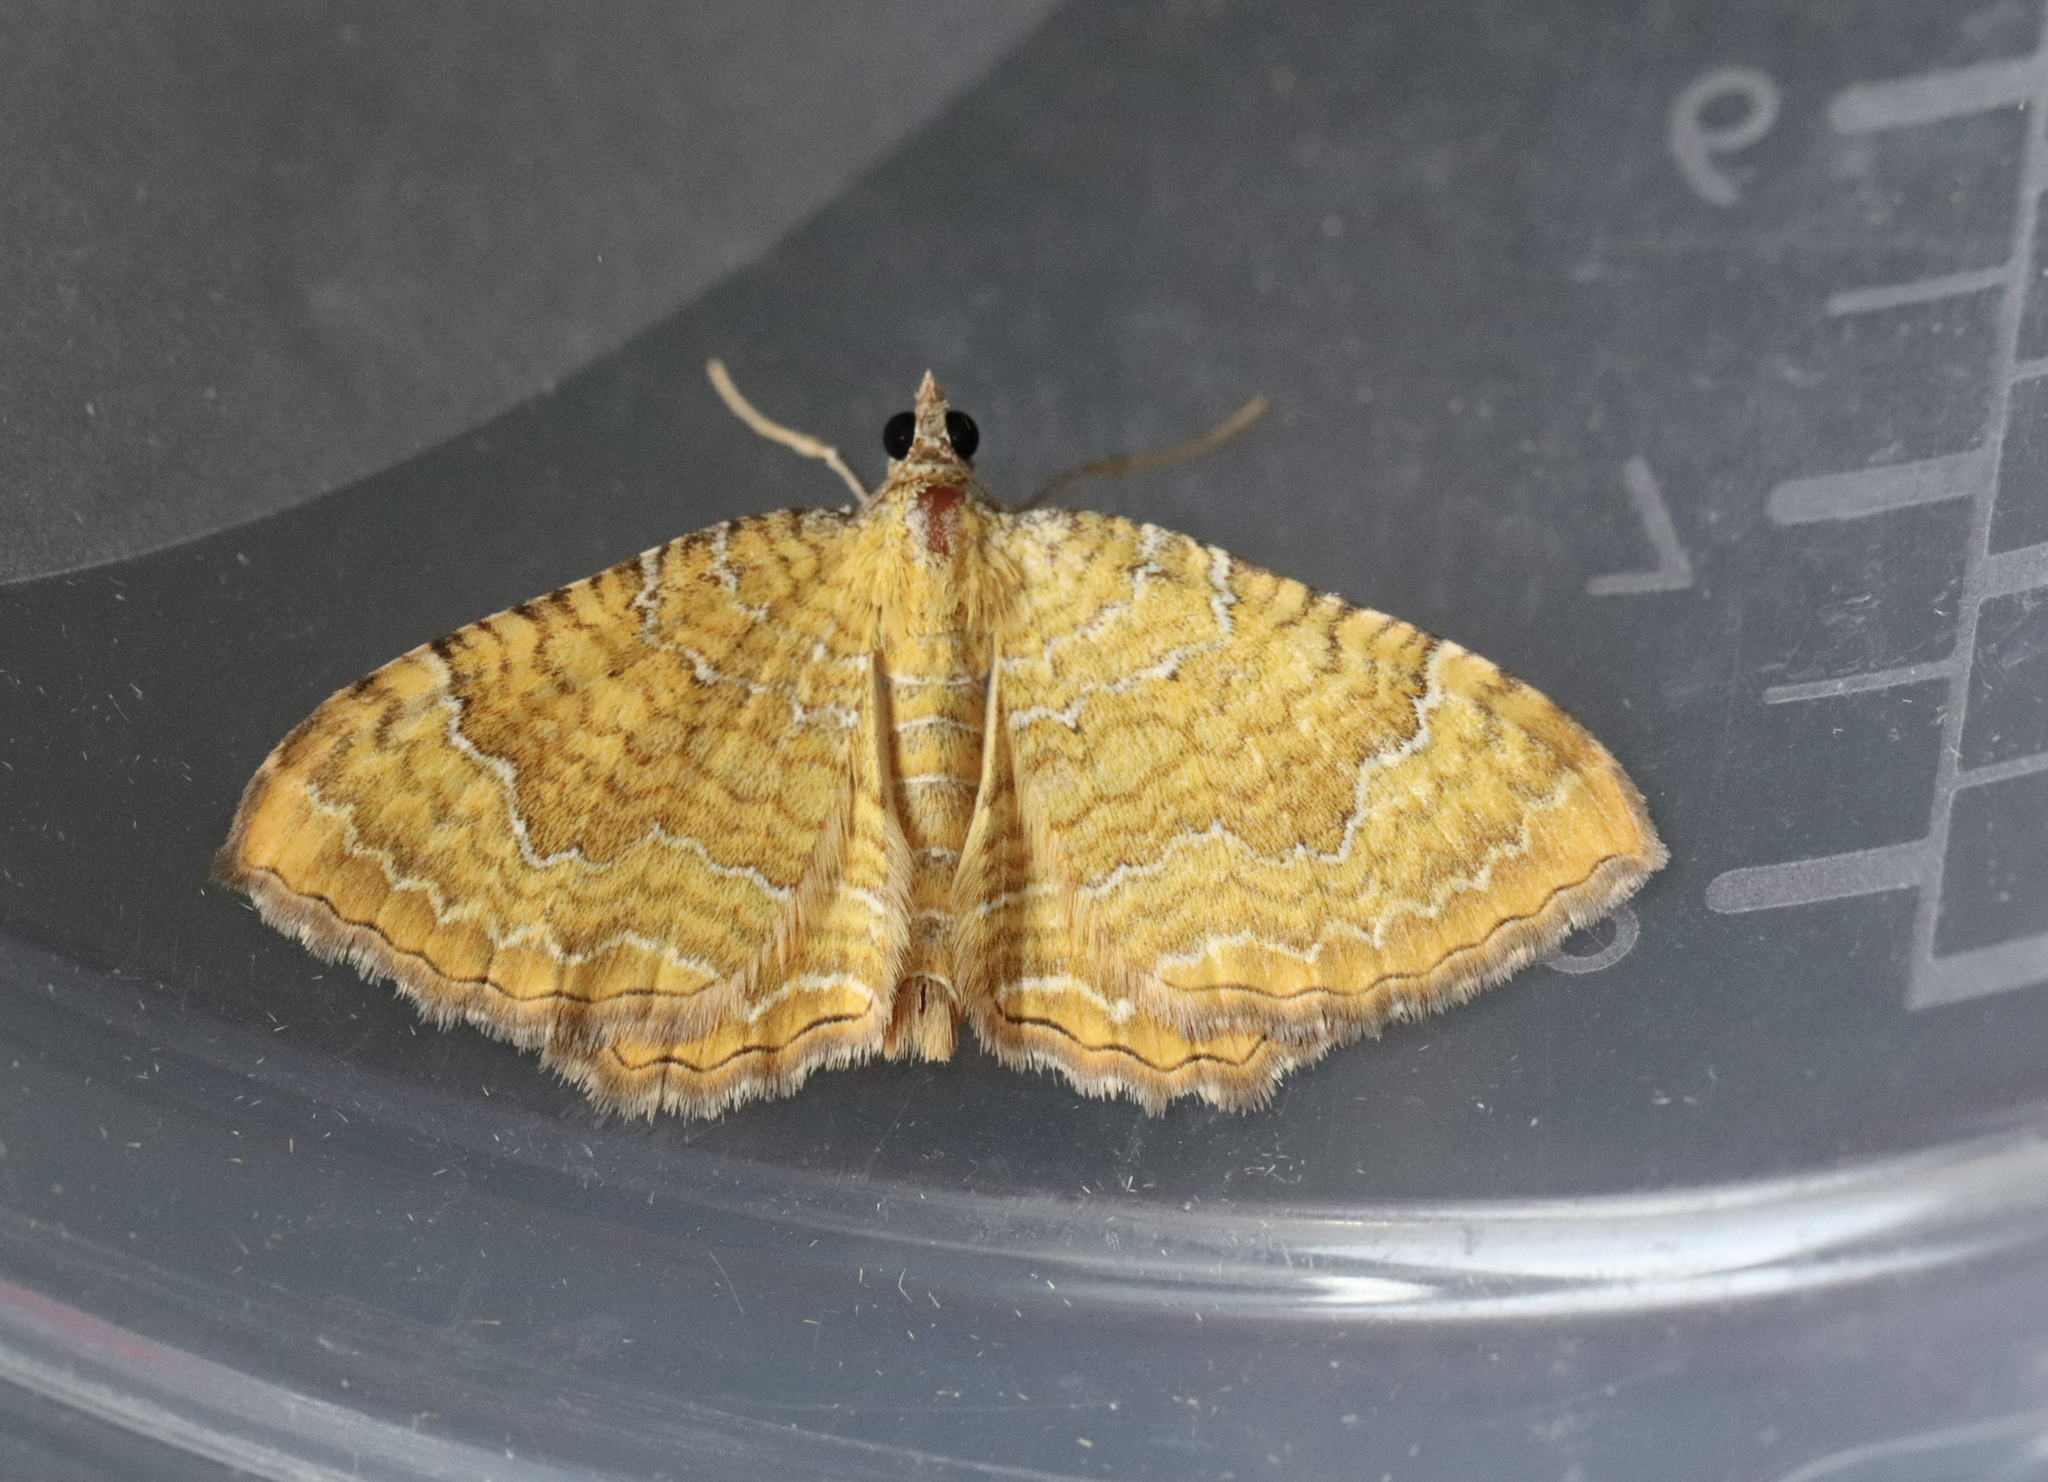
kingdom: Animalia
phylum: Arthropoda
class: Insecta
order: Lepidoptera
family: Geometridae
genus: Camptogramma
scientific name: Camptogramma bilineata
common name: Yellow shell
